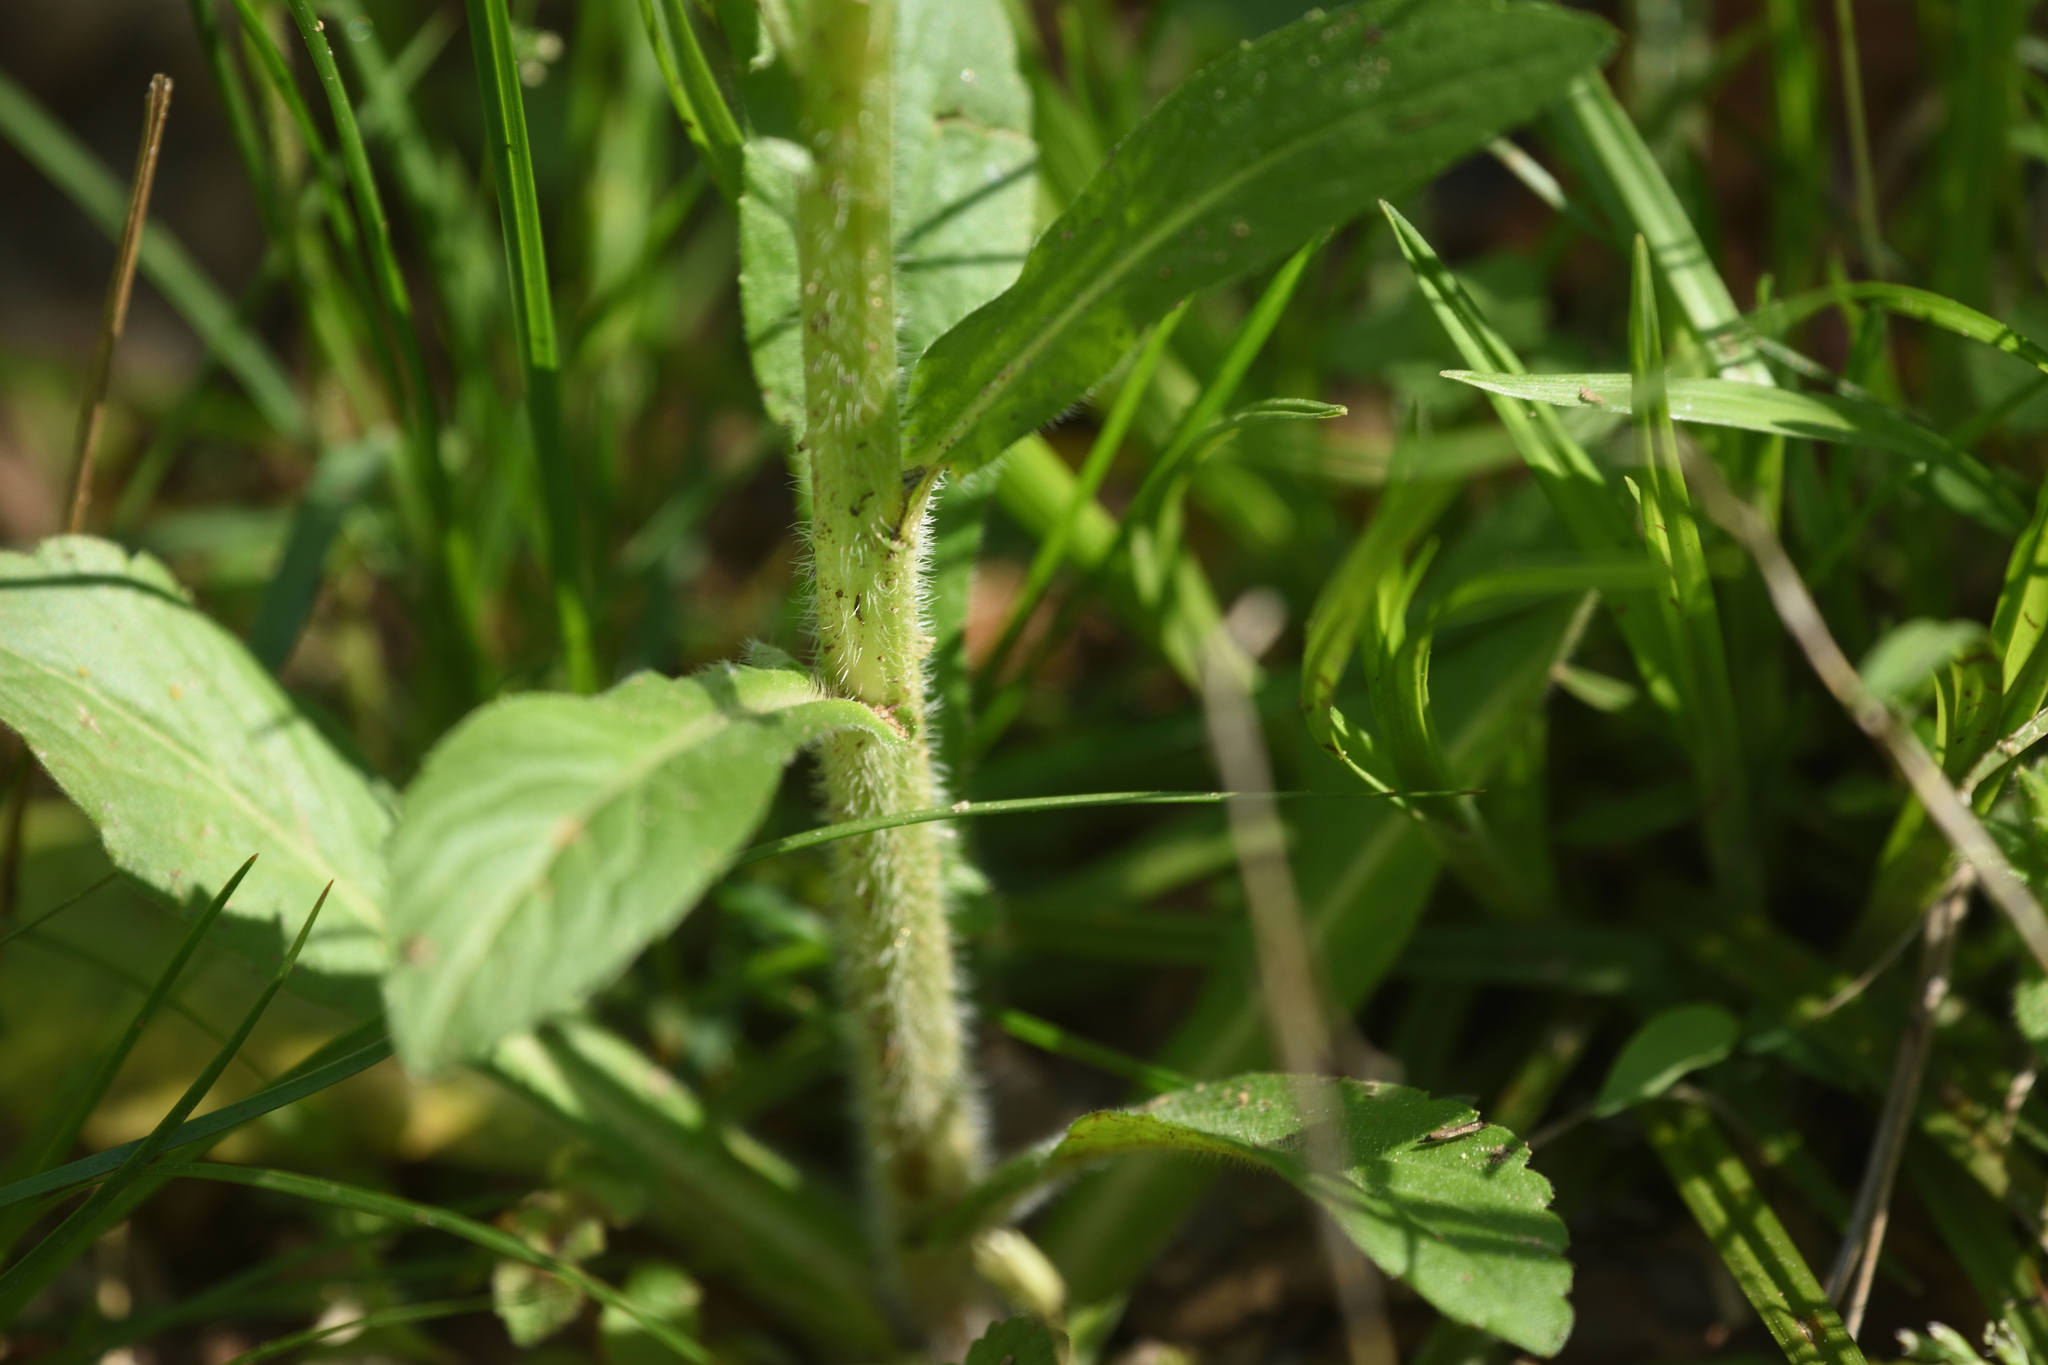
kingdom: Plantae
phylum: Tracheophyta
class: Magnoliopsida
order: Asterales
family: Asteraceae
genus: Erigeron
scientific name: Erigeron philadelphicus
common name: Robin's-plantain
